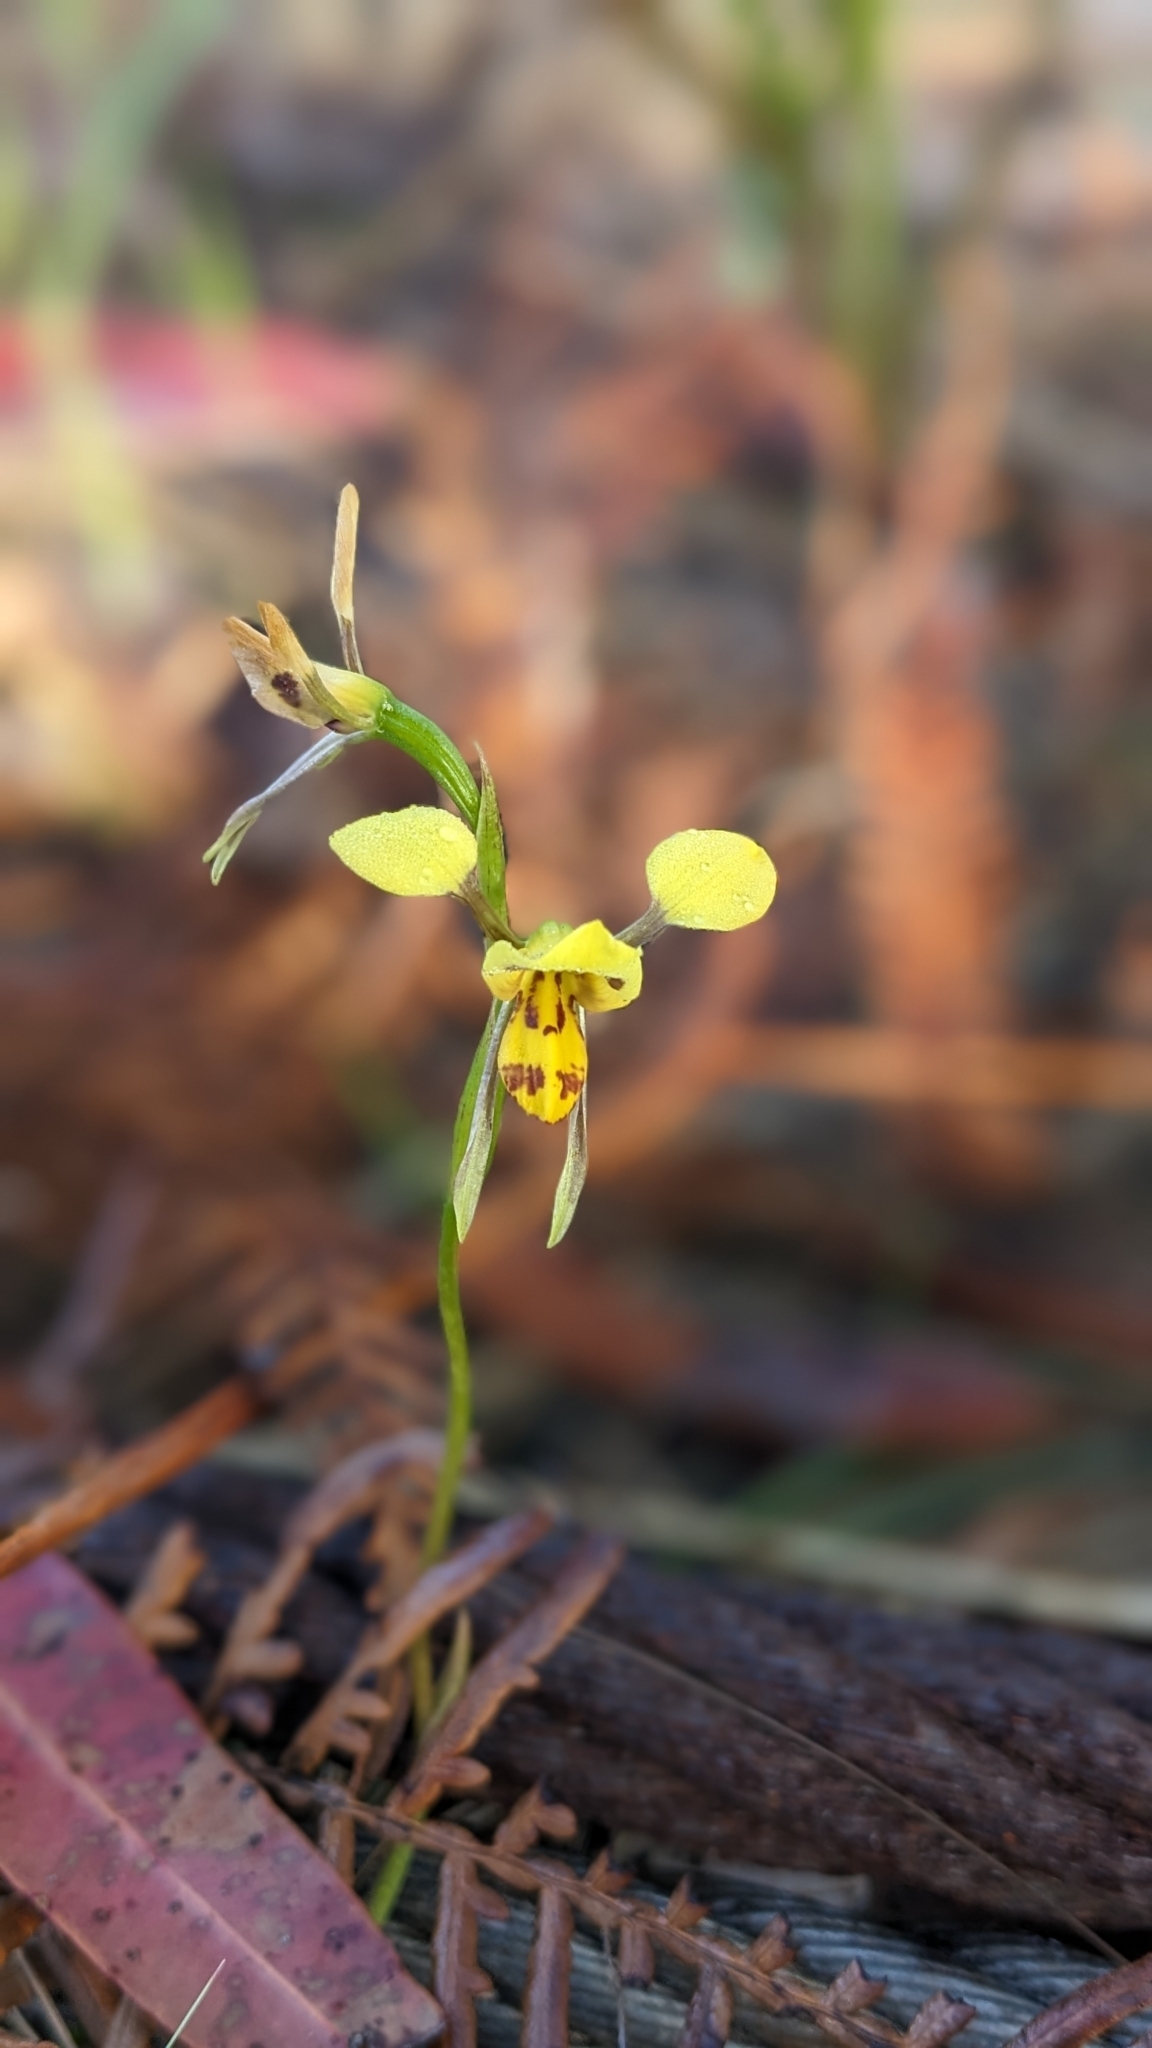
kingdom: Plantae
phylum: Tracheophyta
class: Liliopsida
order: Asparagales
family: Orchidaceae
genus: Diuris
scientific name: Diuris sulphurea
